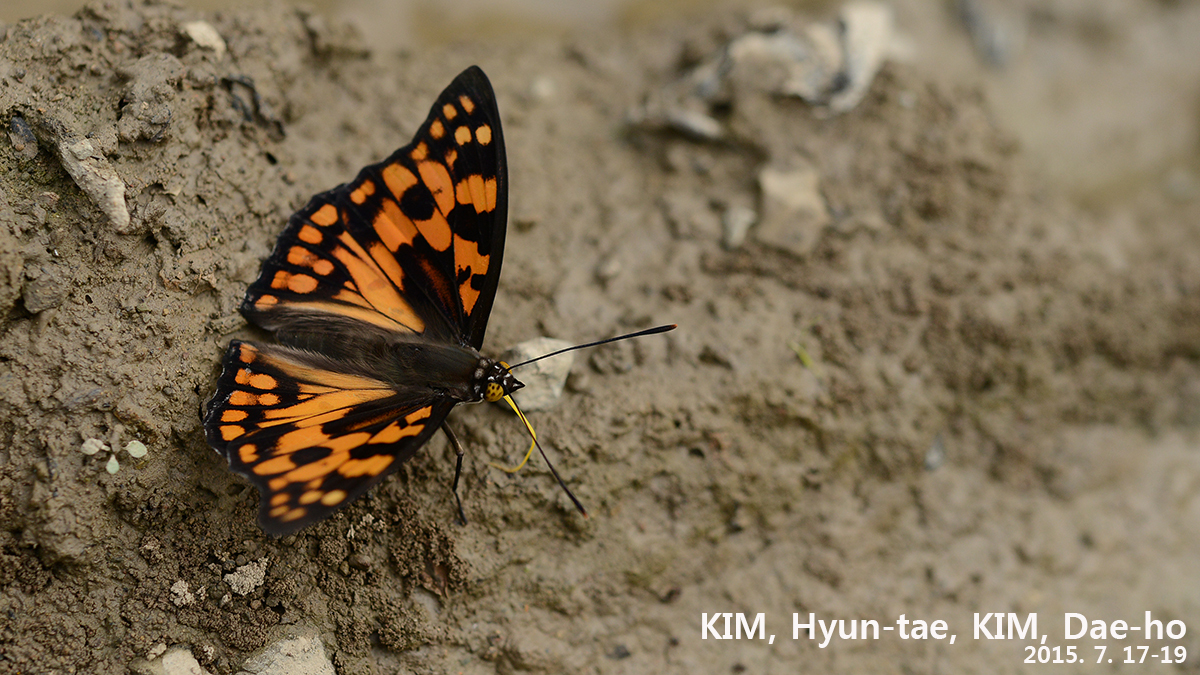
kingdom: Animalia
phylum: Arthropoda
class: Insecta
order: Lepidoptera
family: Nymphalidae
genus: Sephisa
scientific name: Sephisa dichroa
